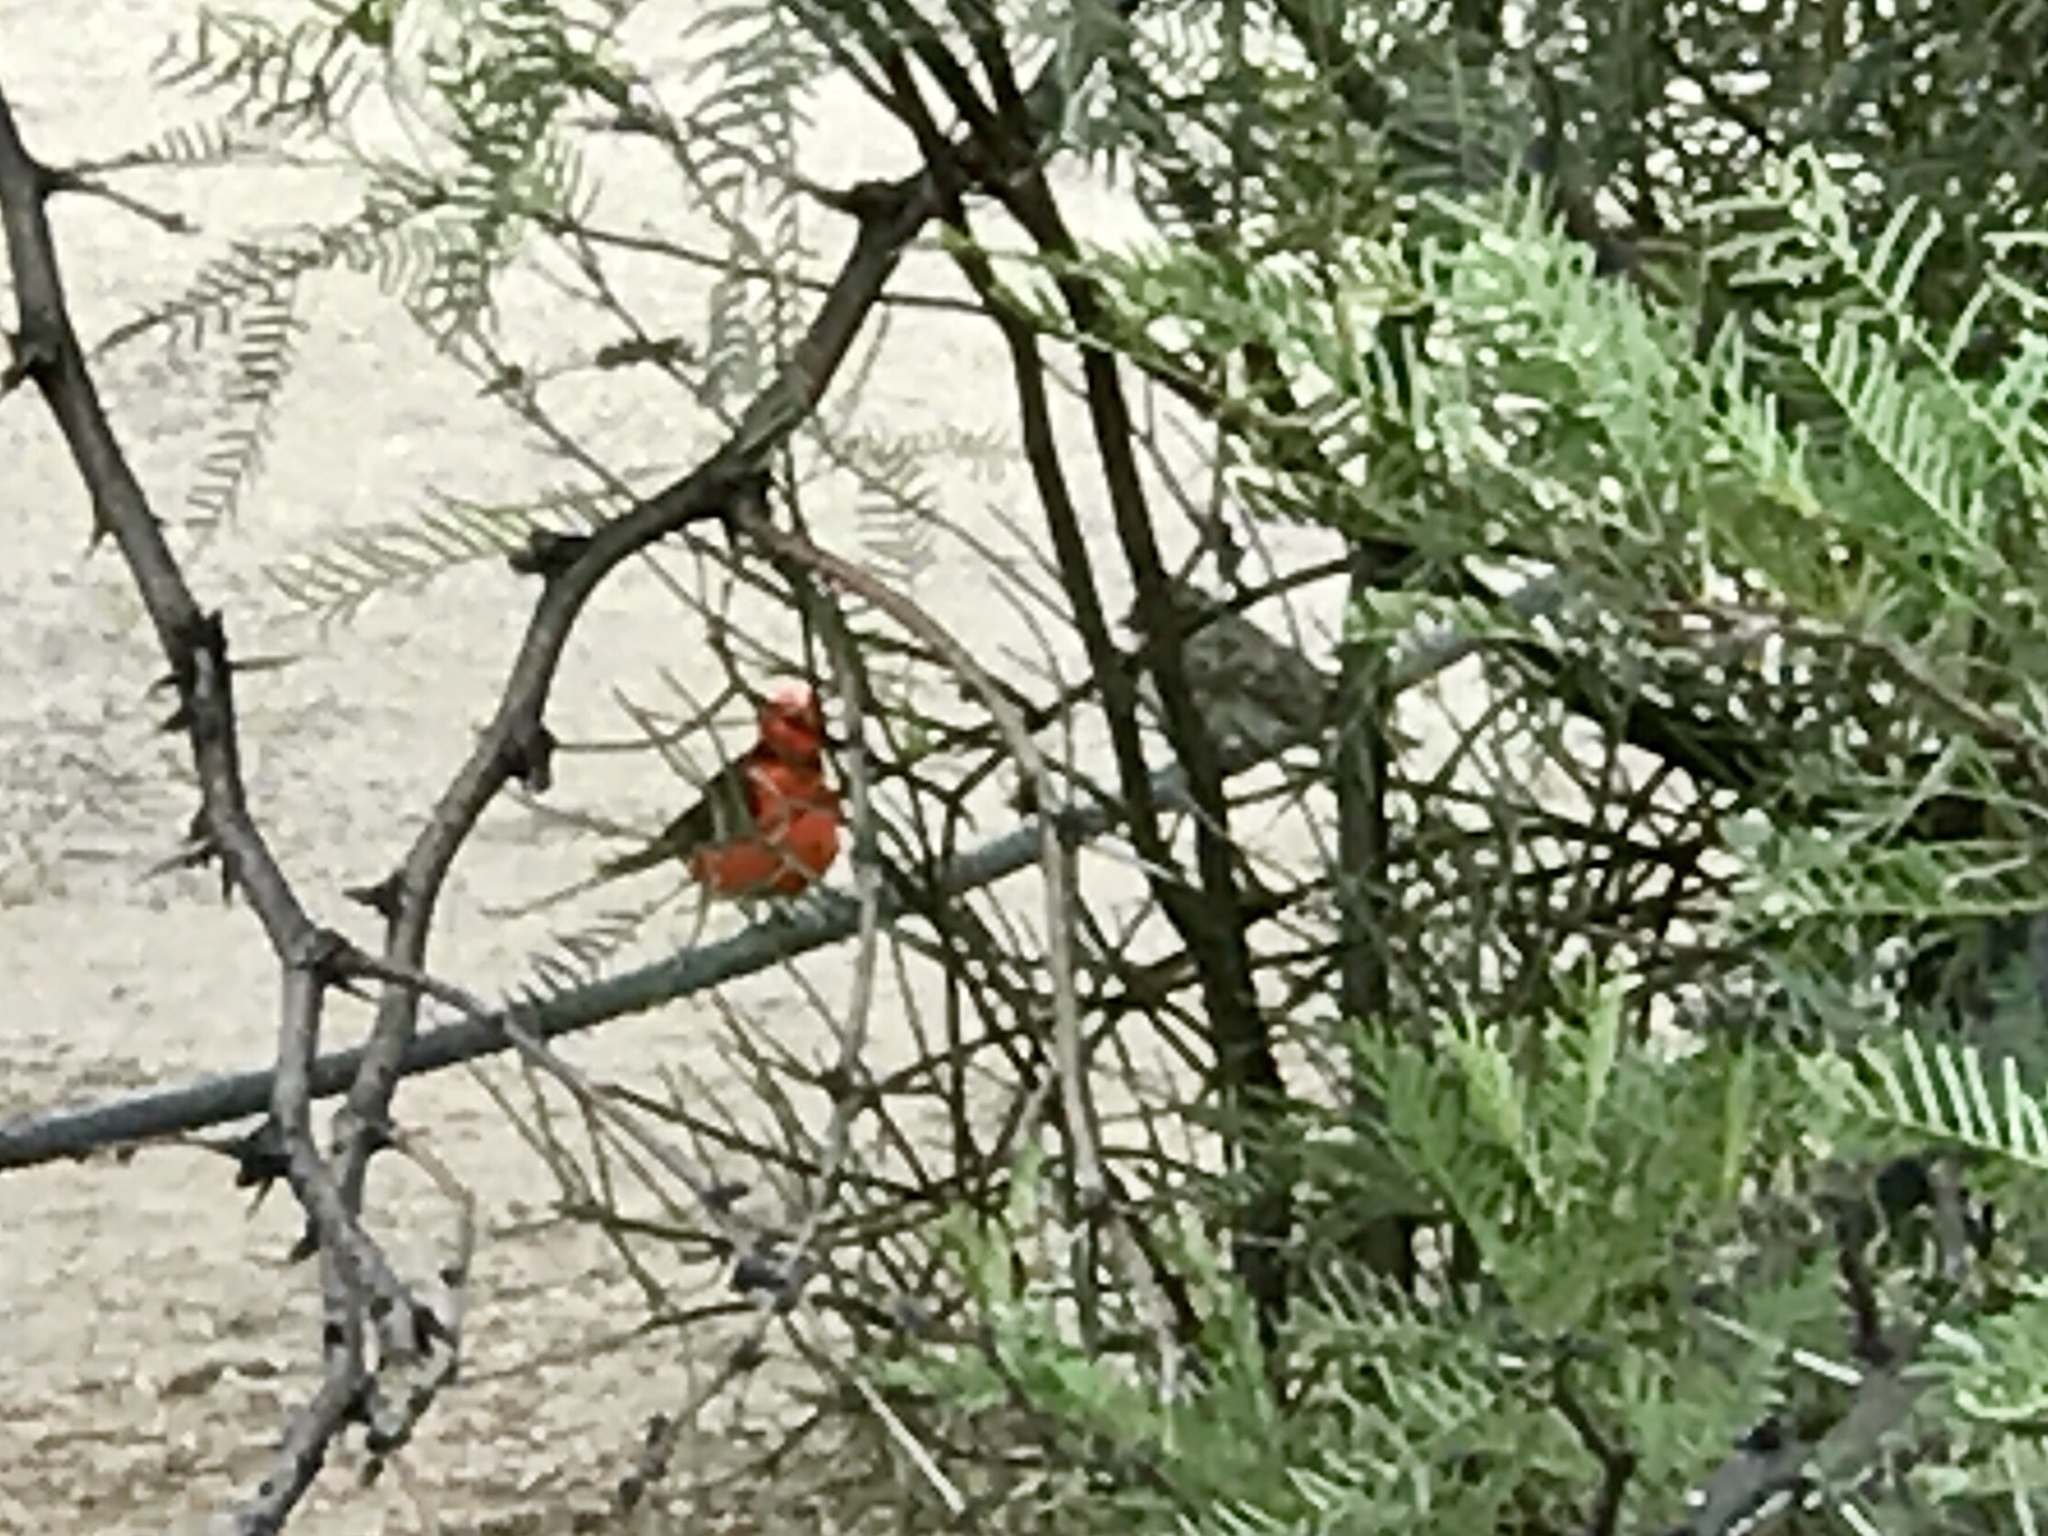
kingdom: Animalia
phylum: Chordata
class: Aves
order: Passeriformes
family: Tyrannidae
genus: Pyrocephalus
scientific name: Pyrocephalus rubinus
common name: Vermilion flycatcher
